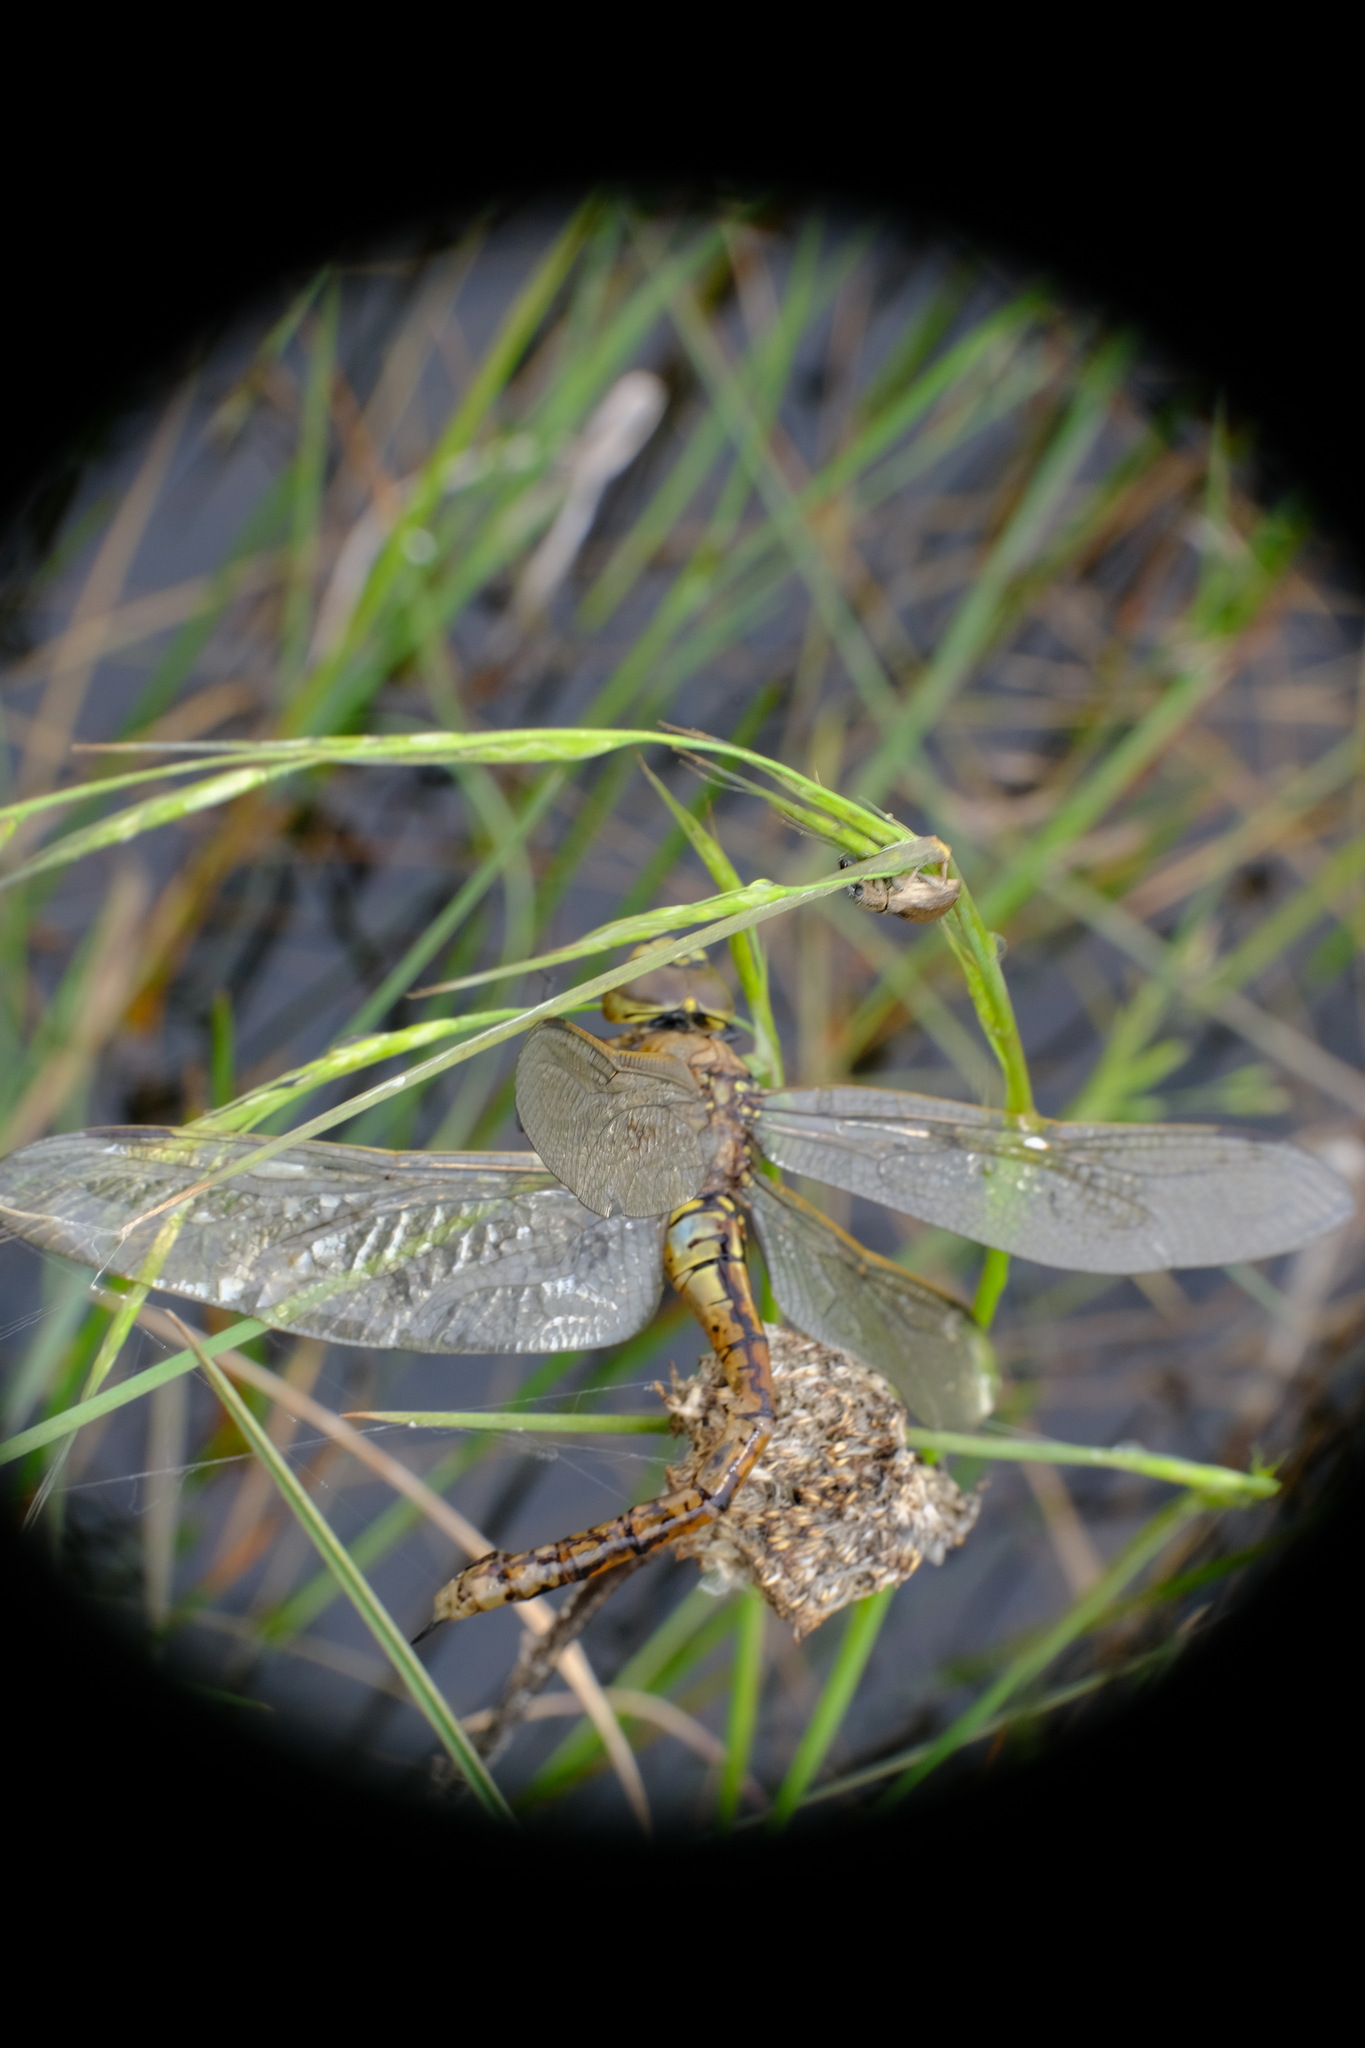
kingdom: Animalia
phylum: Arthropoda
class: Insecta
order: Odonata
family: Aeshnidae
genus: Anax
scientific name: Anax papuensis
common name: Australian emperor
